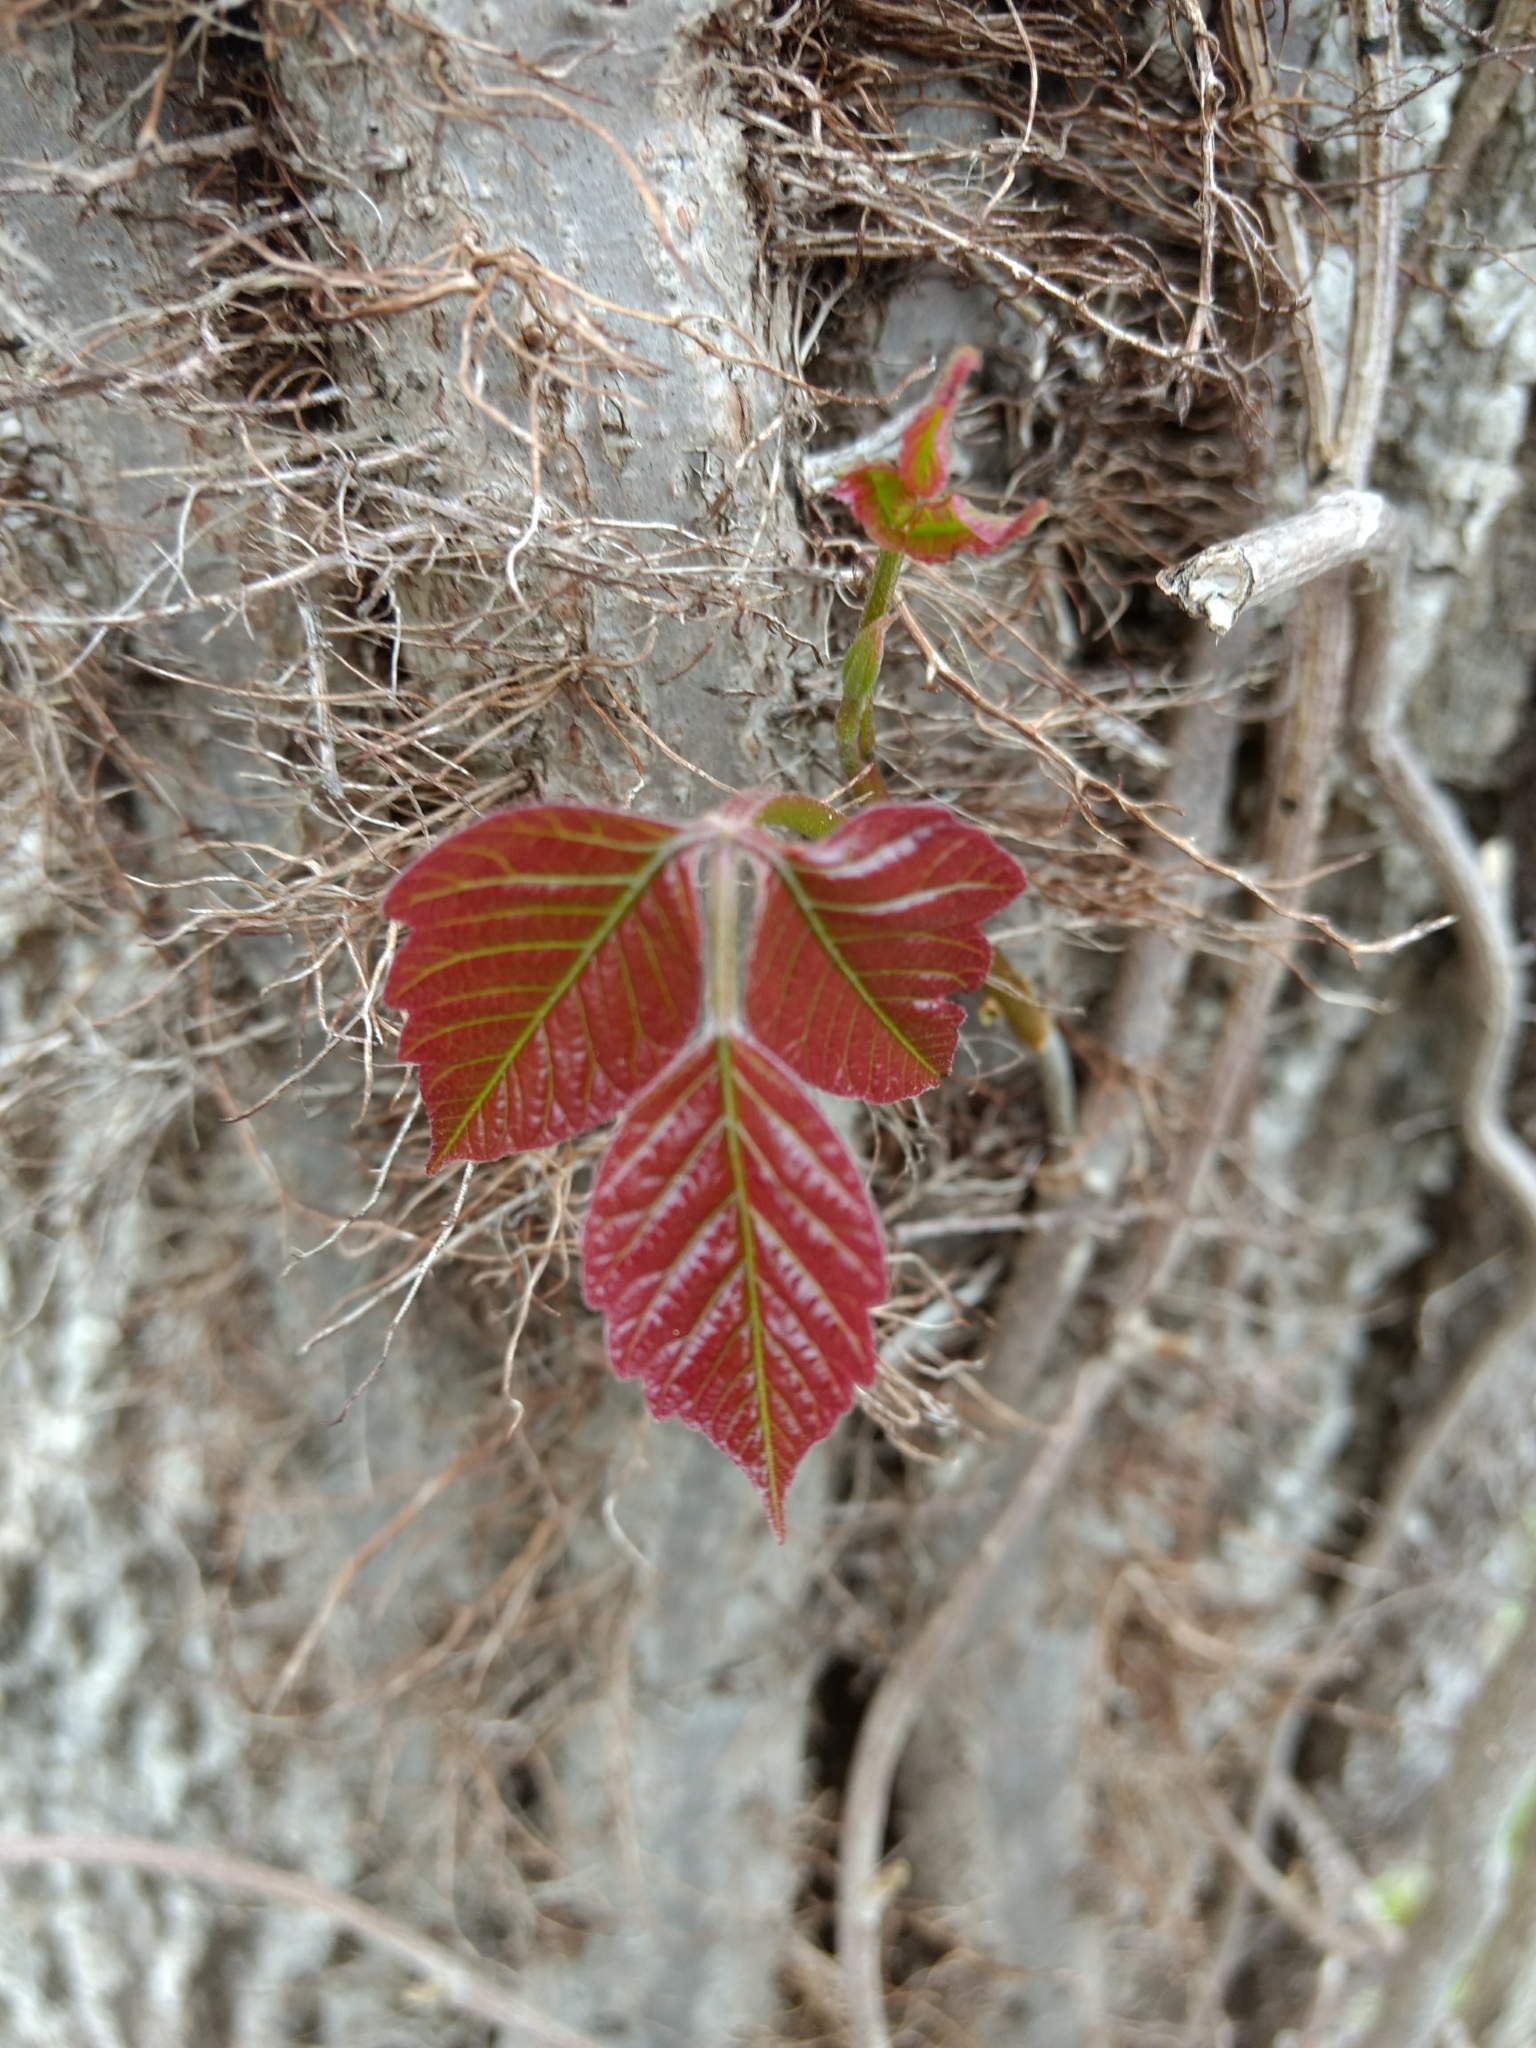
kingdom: Plantae
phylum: Tracheophyta
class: Magnoliopsida
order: Sapindales
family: Anacardiaceae
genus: Toxicodendron
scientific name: Toxicodendron radicans
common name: Poison ivy
